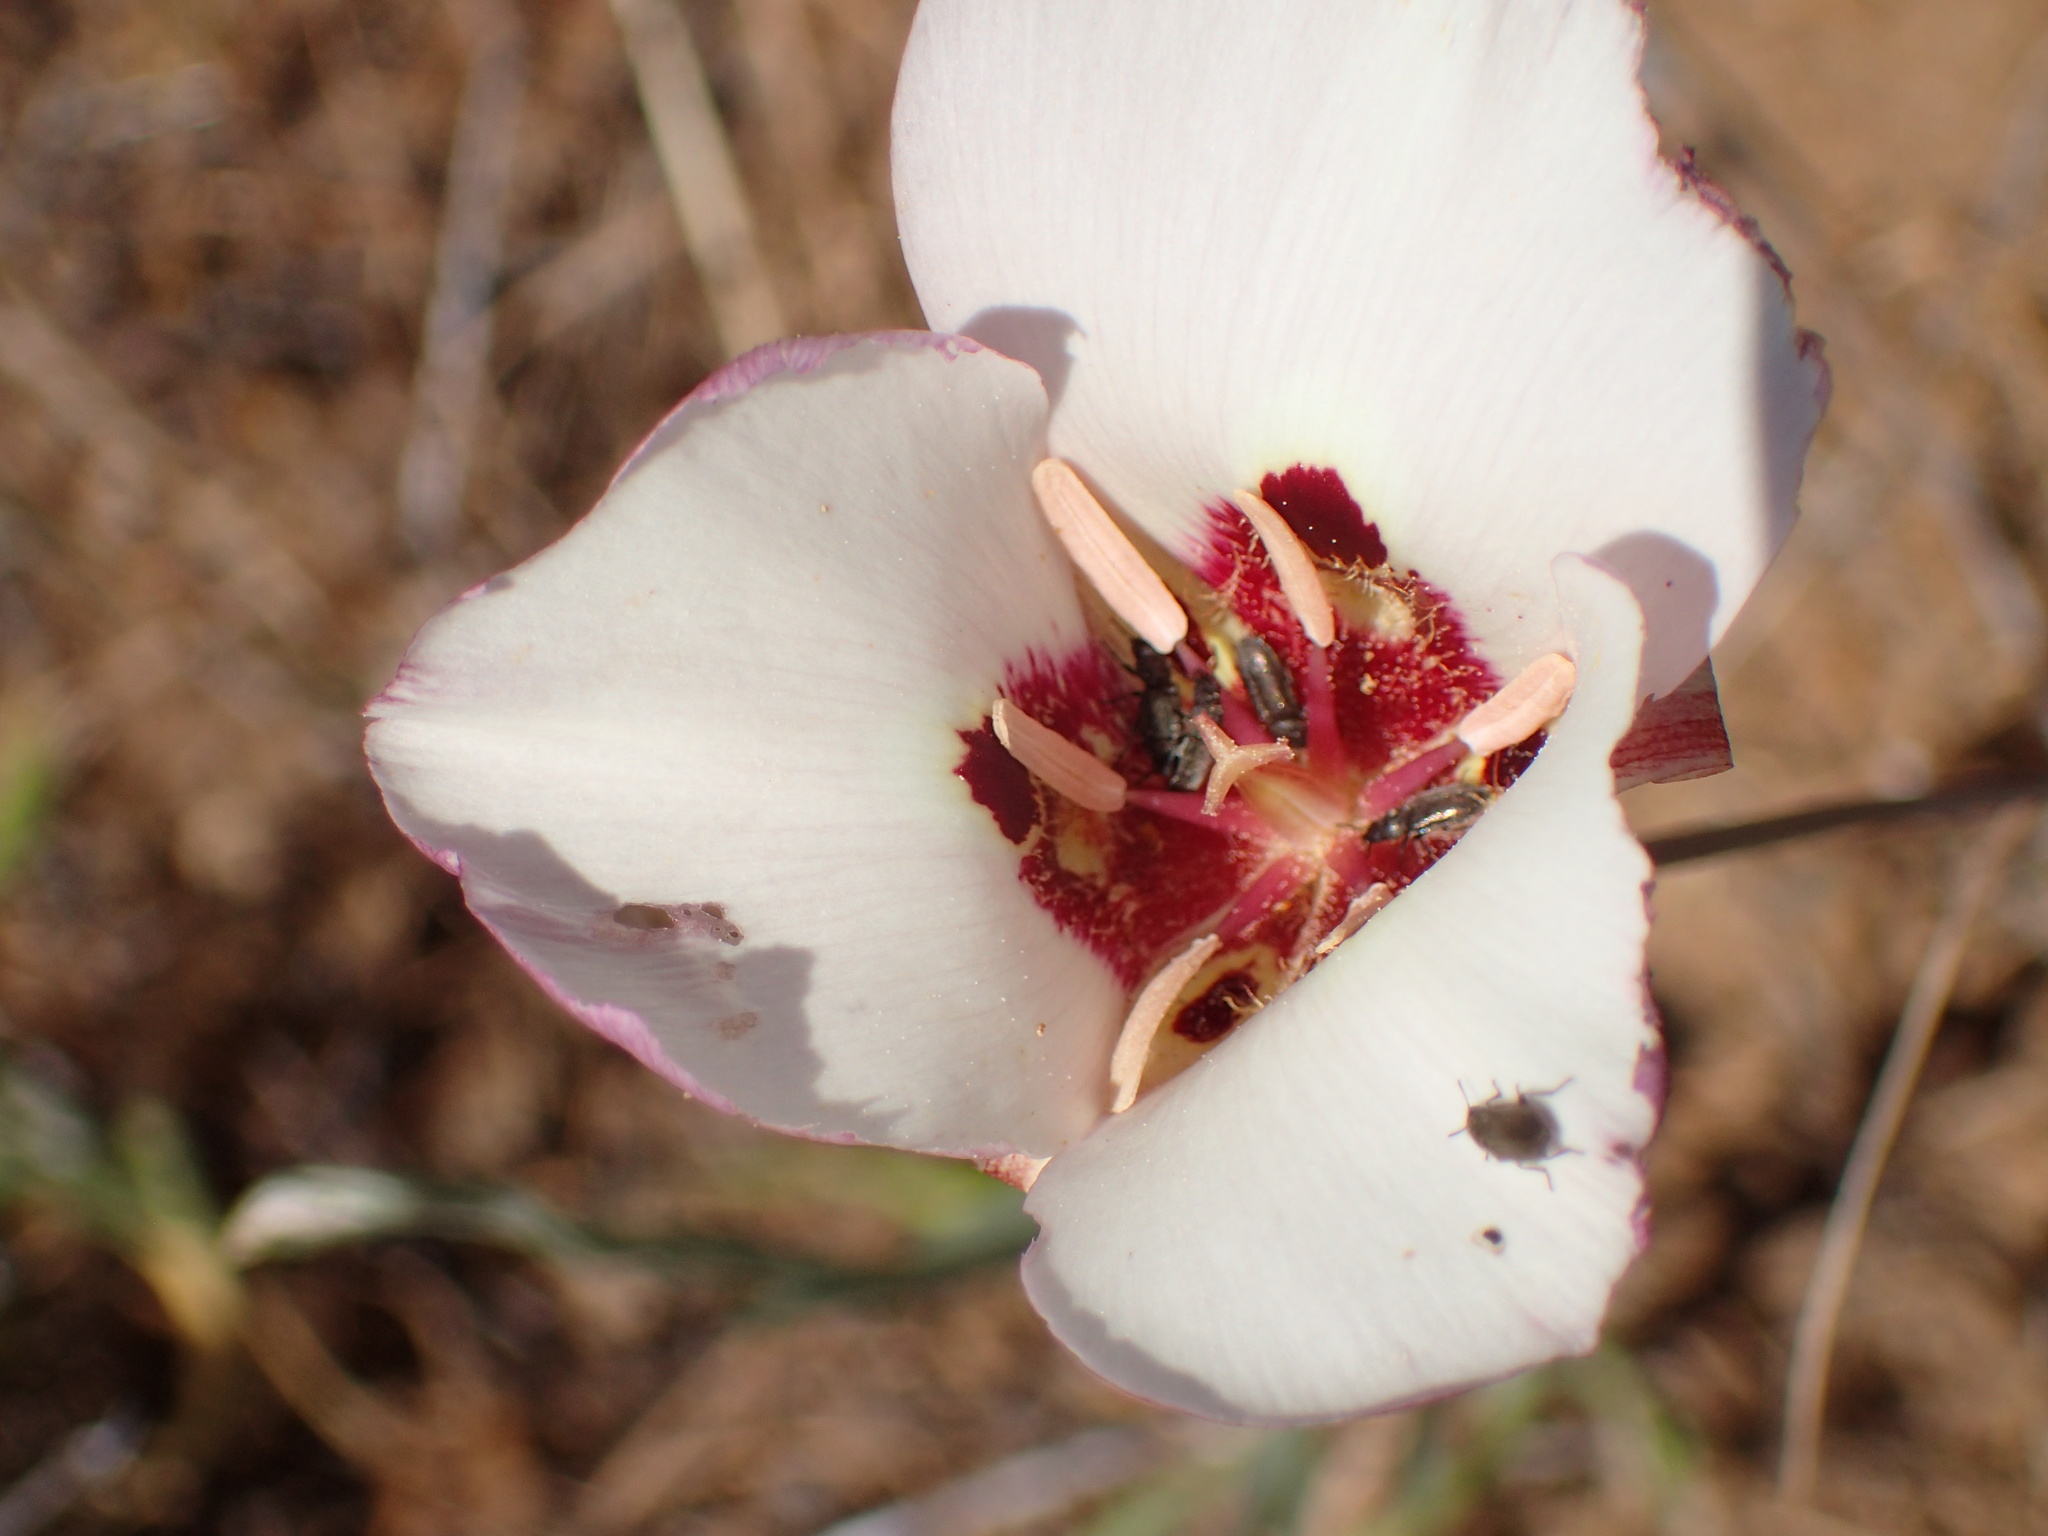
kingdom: Plantae
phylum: Tracheophyta
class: Liliopsida
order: Liliales
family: Liliaceae
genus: Calochortus
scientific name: Calochortus venustus
